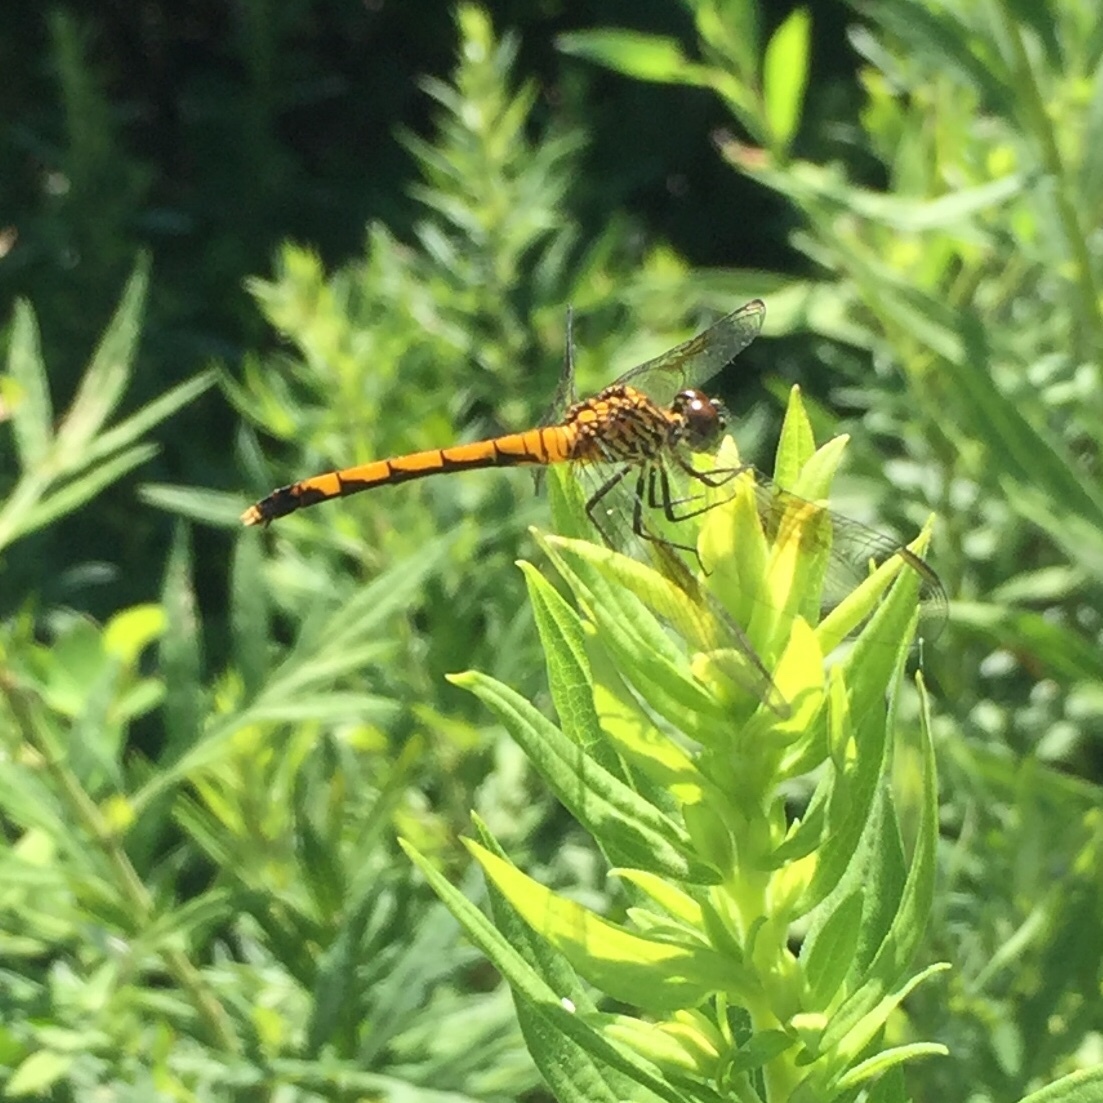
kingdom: Animalia
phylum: Arthropoda
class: Insecta
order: Odonata
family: Libellulidae
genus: Erythrodiplax
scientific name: Erythrodiplax berenice
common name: Seaside dragonlet
